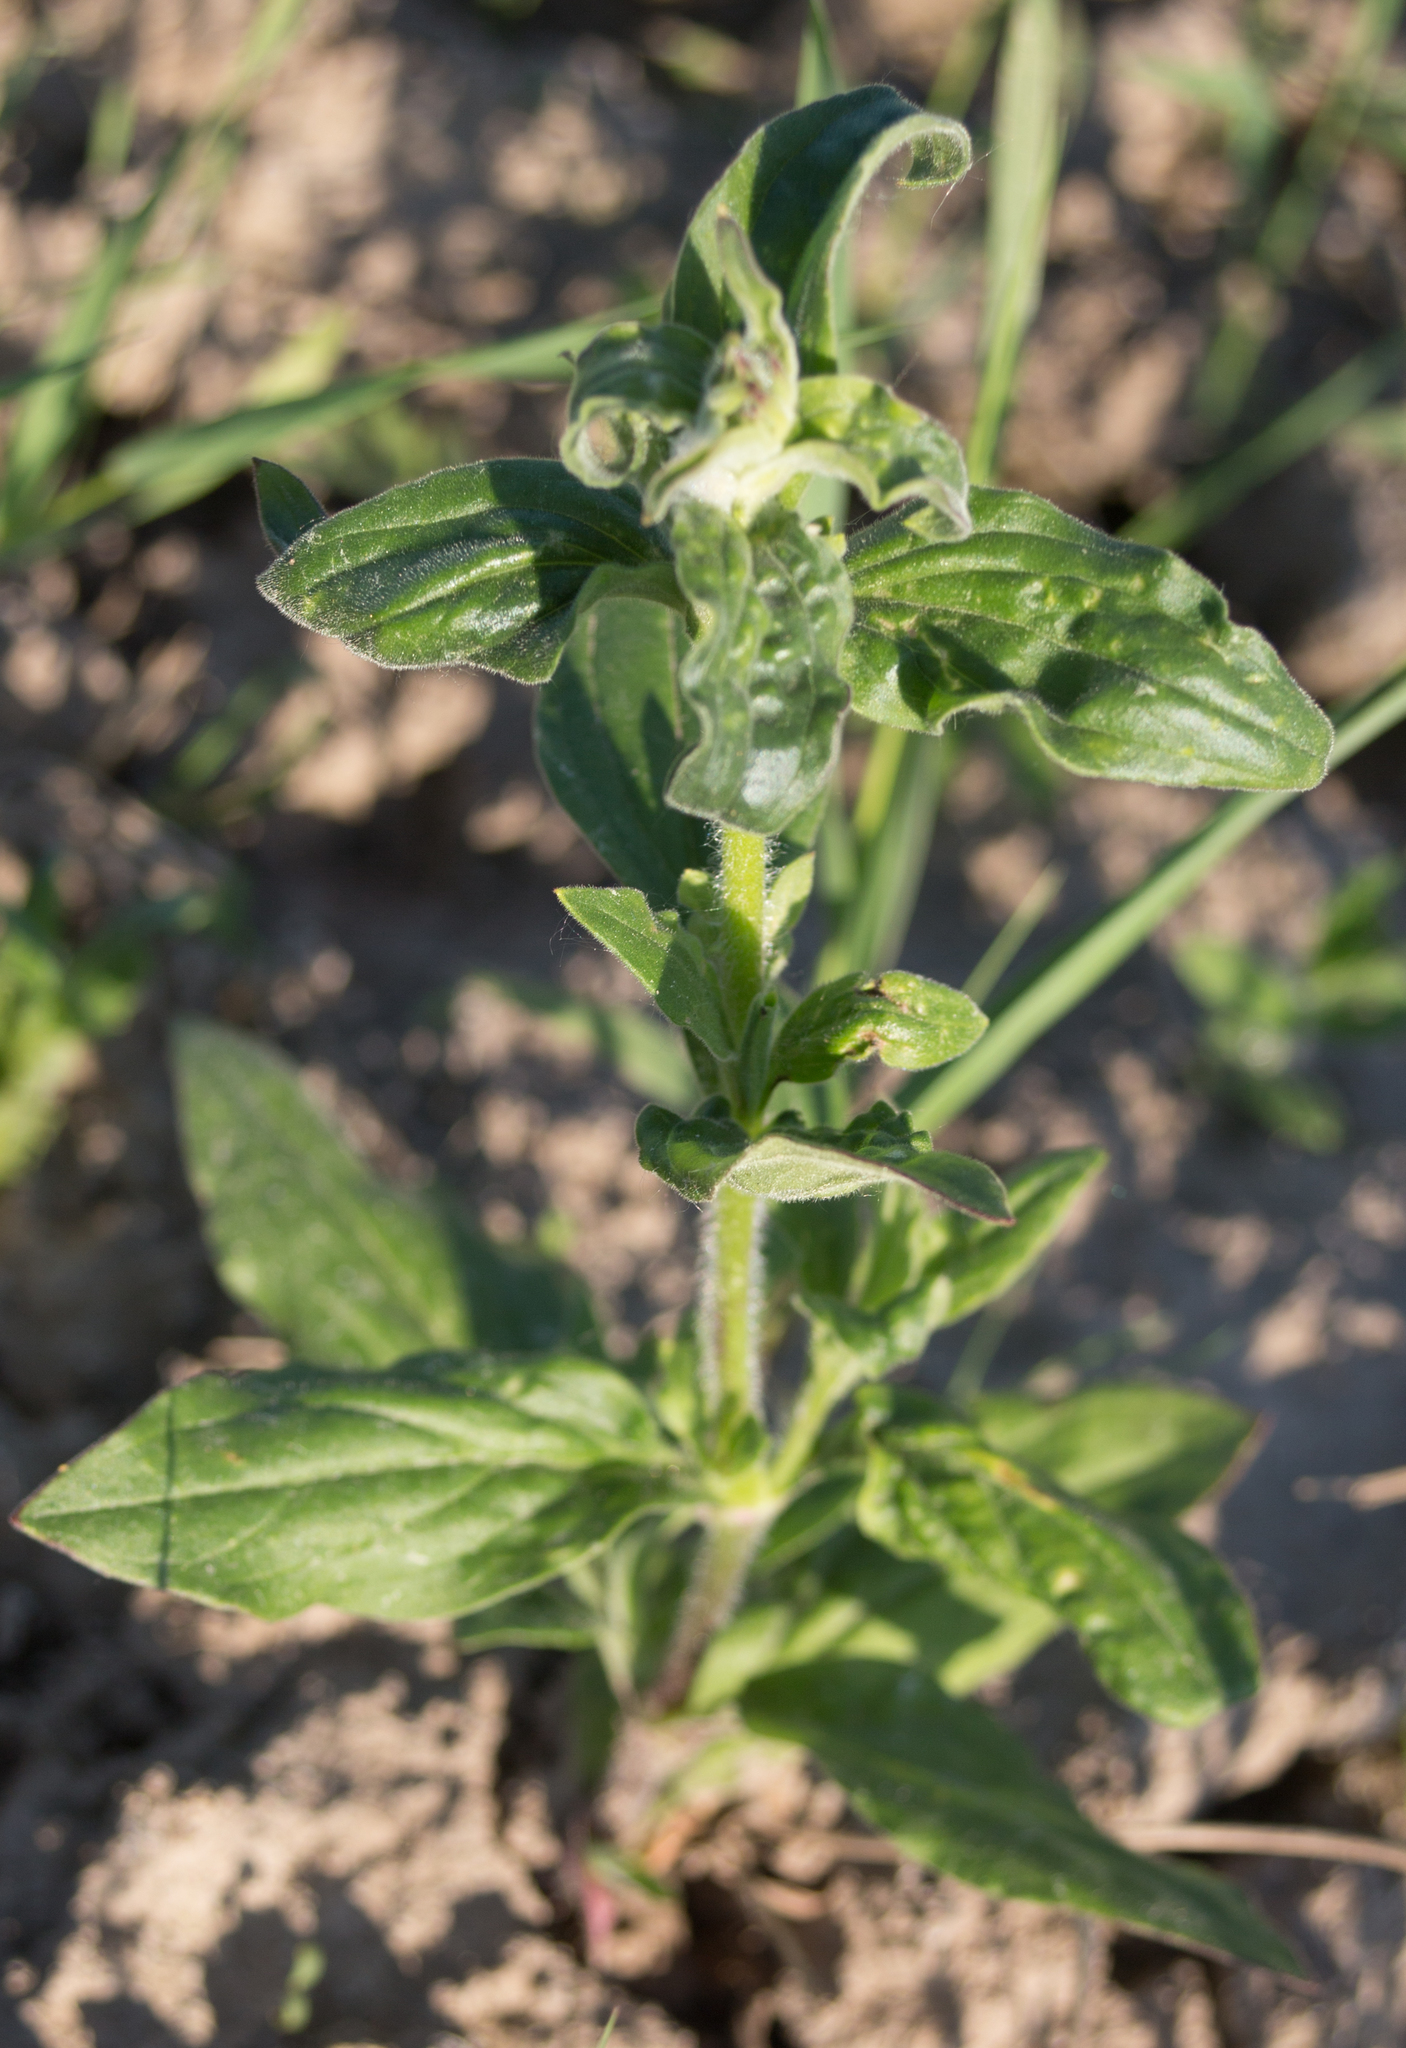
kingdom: Plantae
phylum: Tracheophyta
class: Magnoliopsida
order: Caryophyllales
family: Caryophyllaceae
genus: Silene
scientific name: Silene latifolia
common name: White campion
